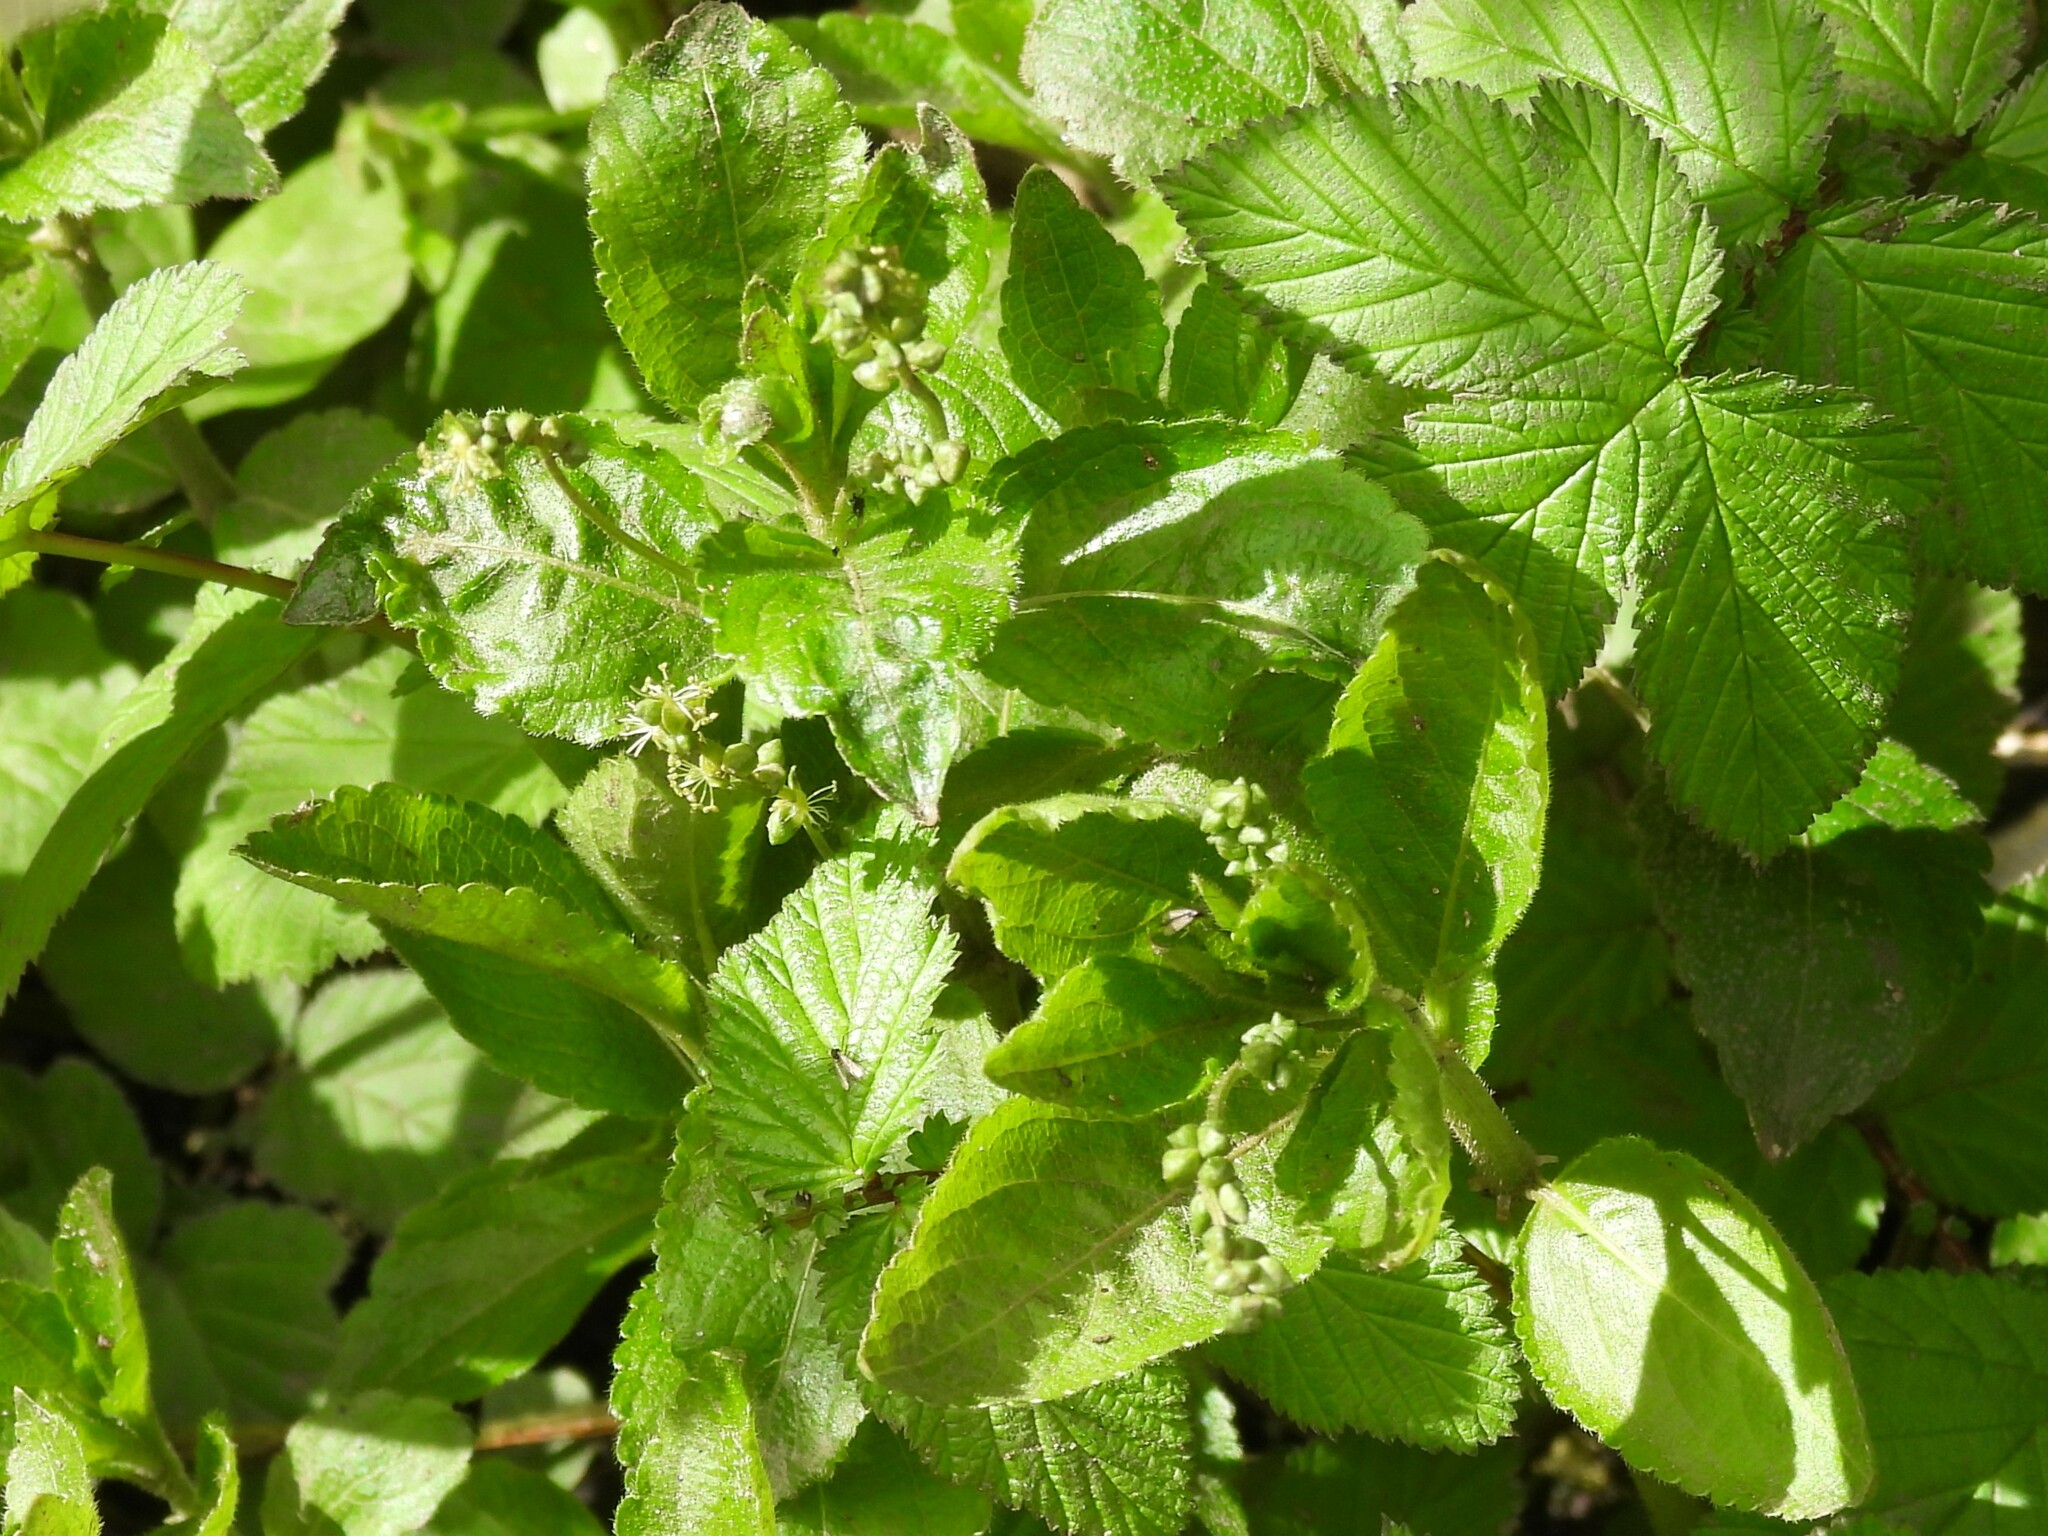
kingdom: Plantae
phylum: Tracheophyta
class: Magnoliopsida
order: Malpighiales
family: Euphorbiaceae
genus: Mercurialis
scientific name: Mercurialis perennis
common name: Dog mercury
